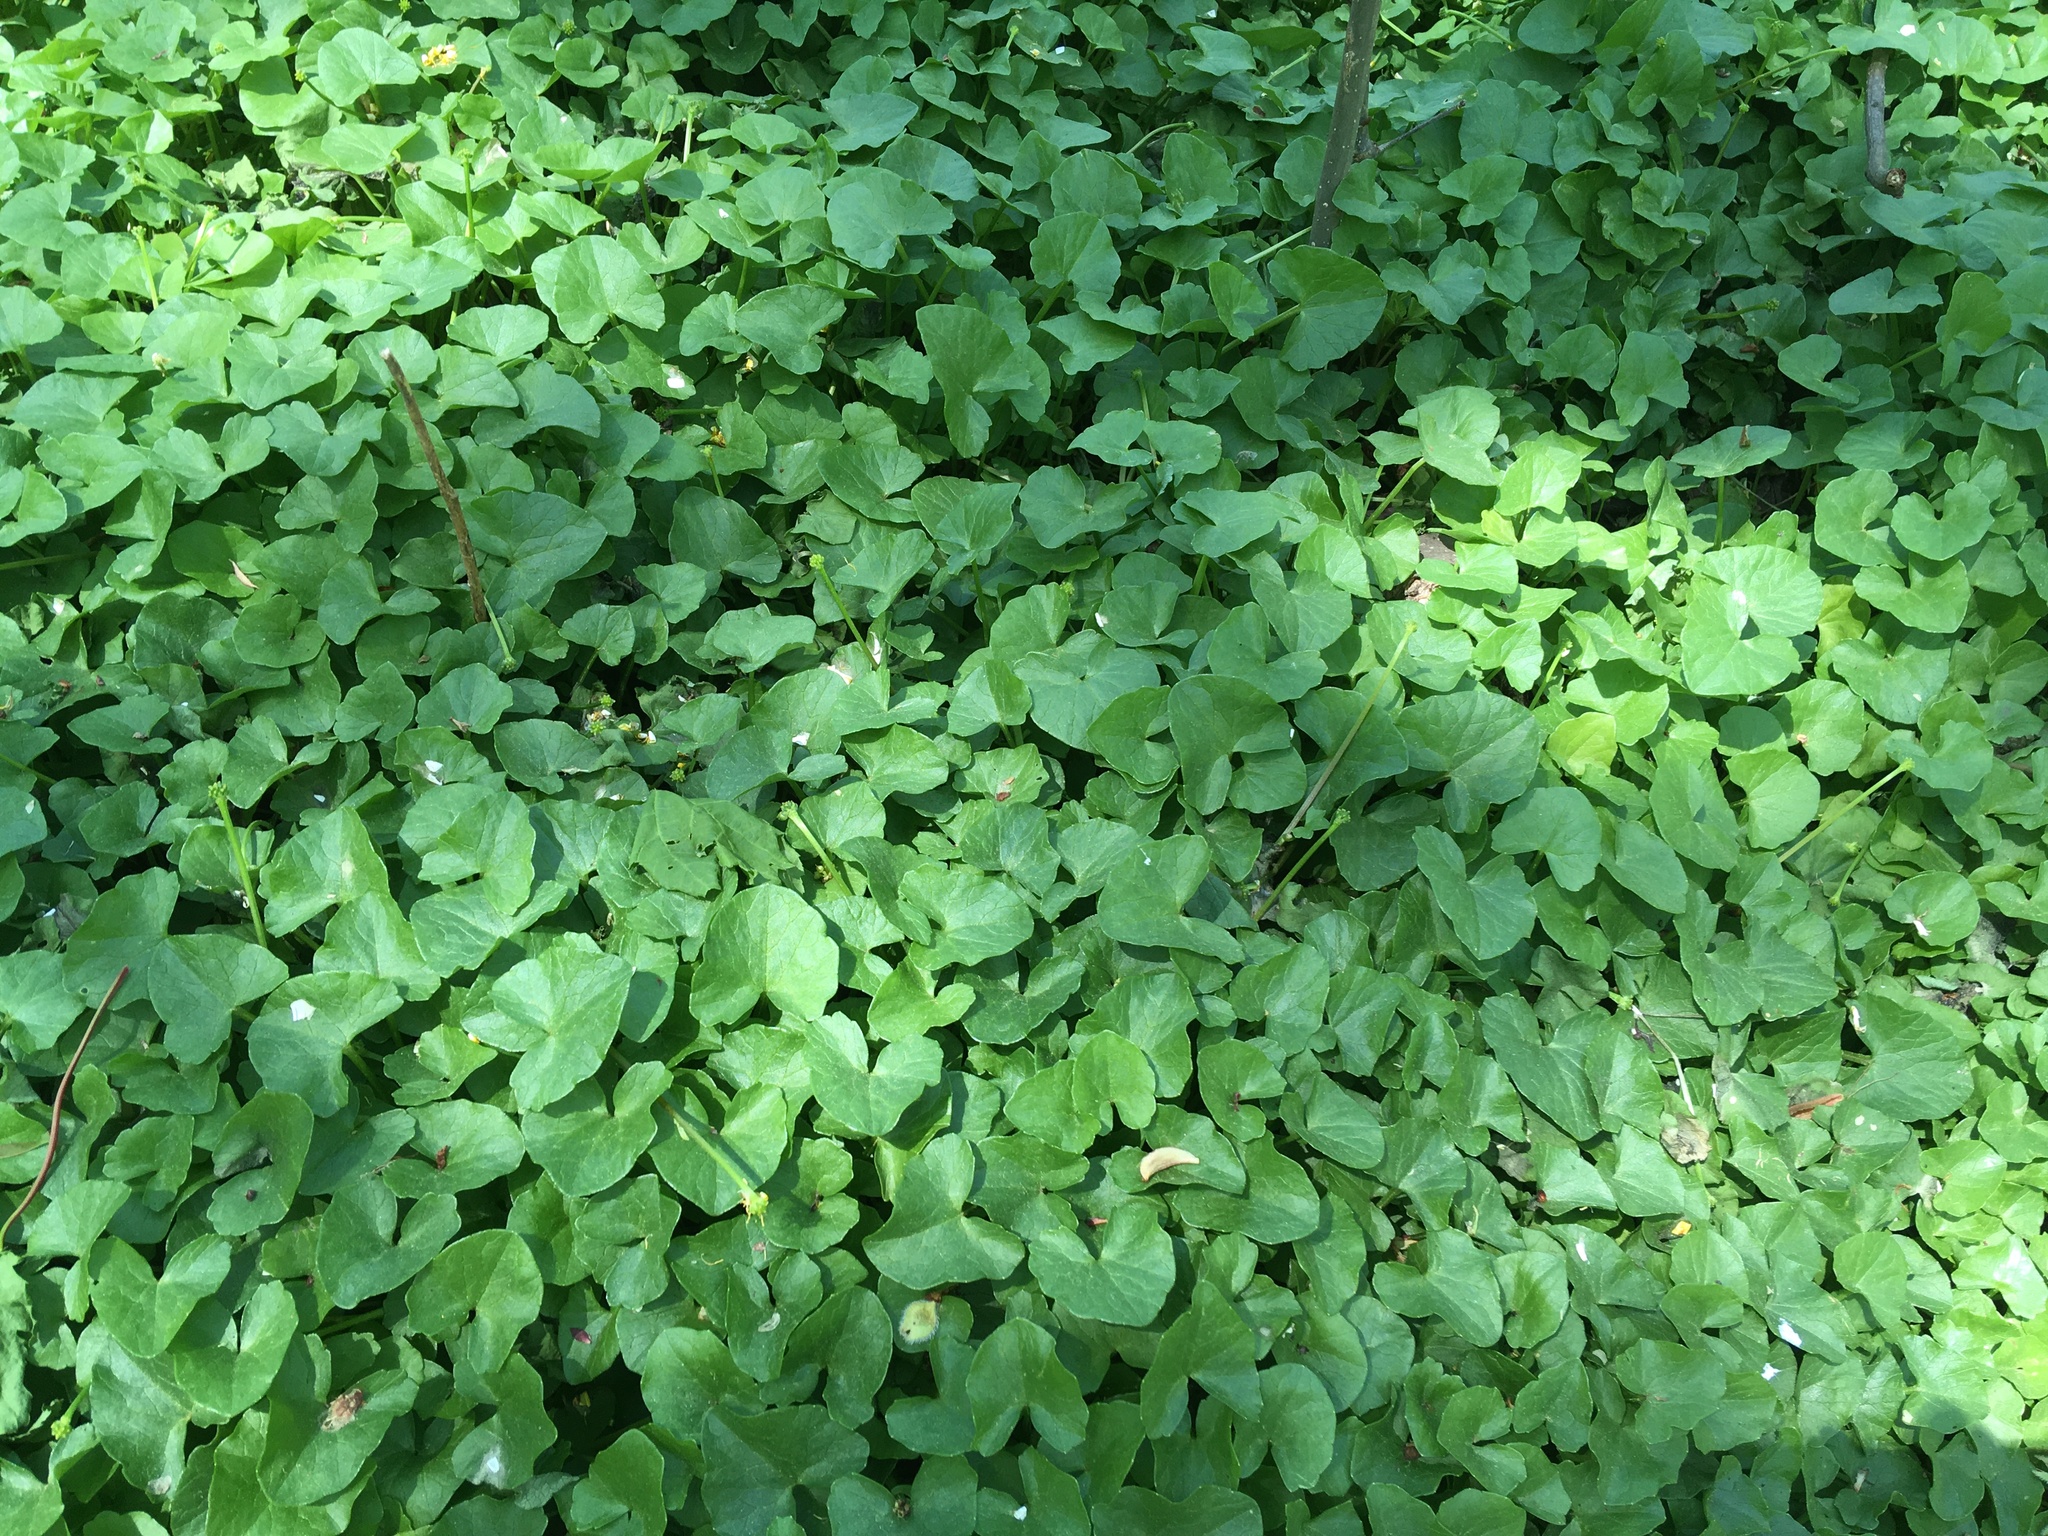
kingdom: Plantae
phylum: Tracheophyta
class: Magnoliopsida
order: Ranunculales
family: Ranunculaceae
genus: Ficaria
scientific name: Ficaria verna
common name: Lesser celandine
